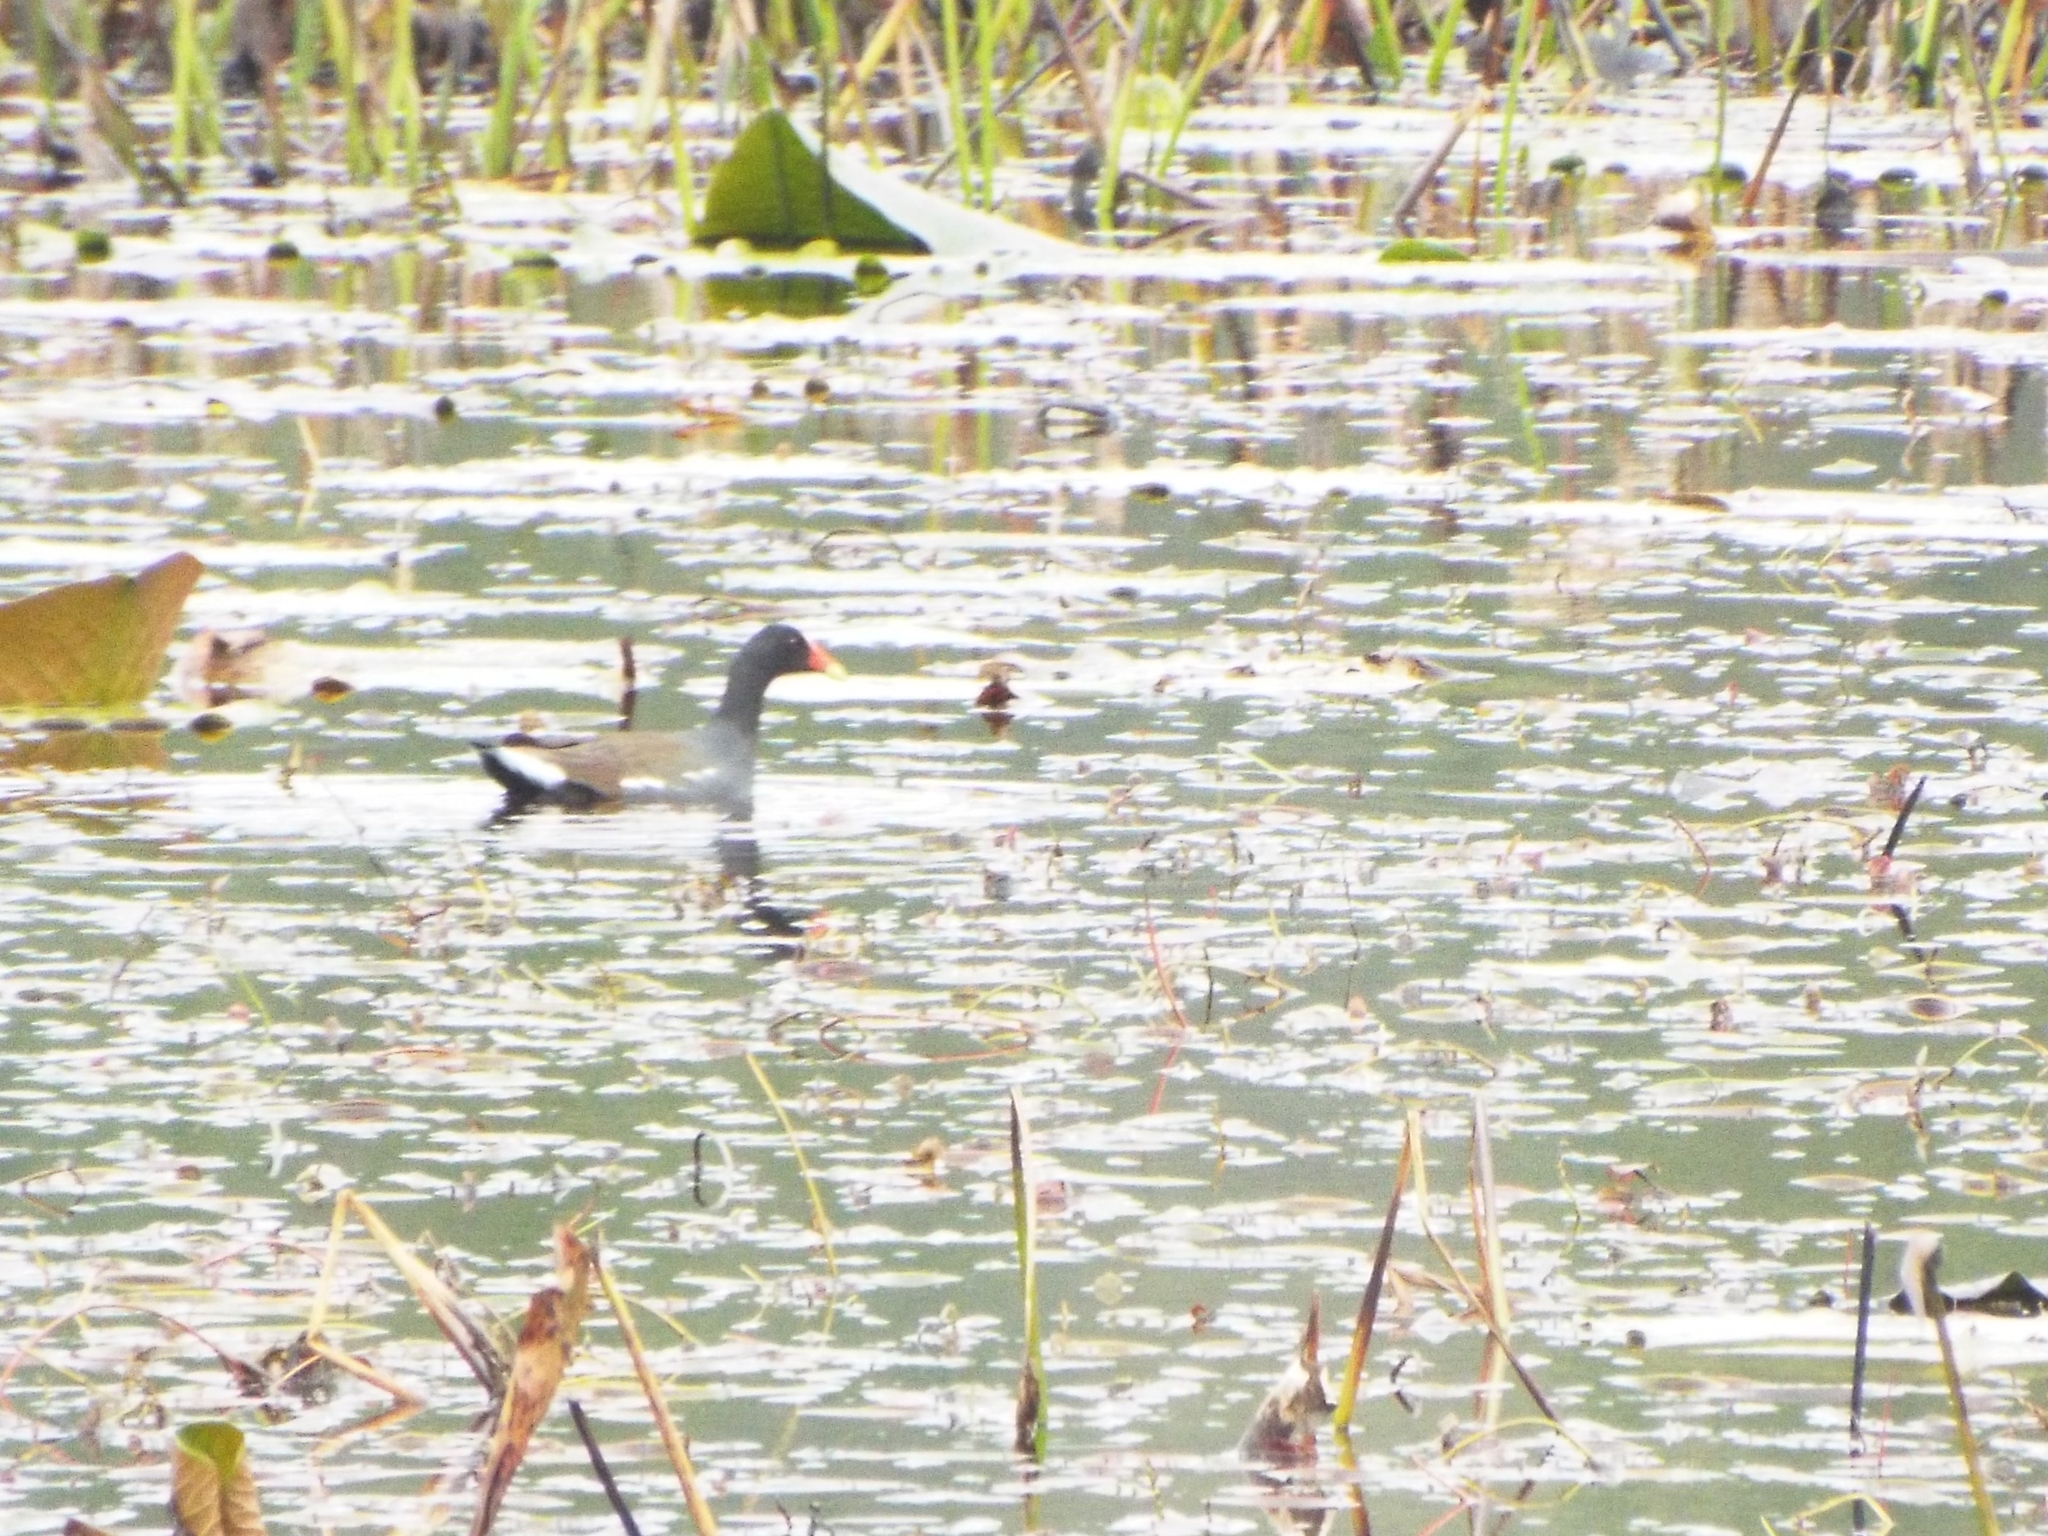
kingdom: Animalia
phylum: Chordata
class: Aves
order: Gruiformes
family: Rallidae
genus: Gallinula
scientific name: Gallinula chloropus
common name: Common moorhen
